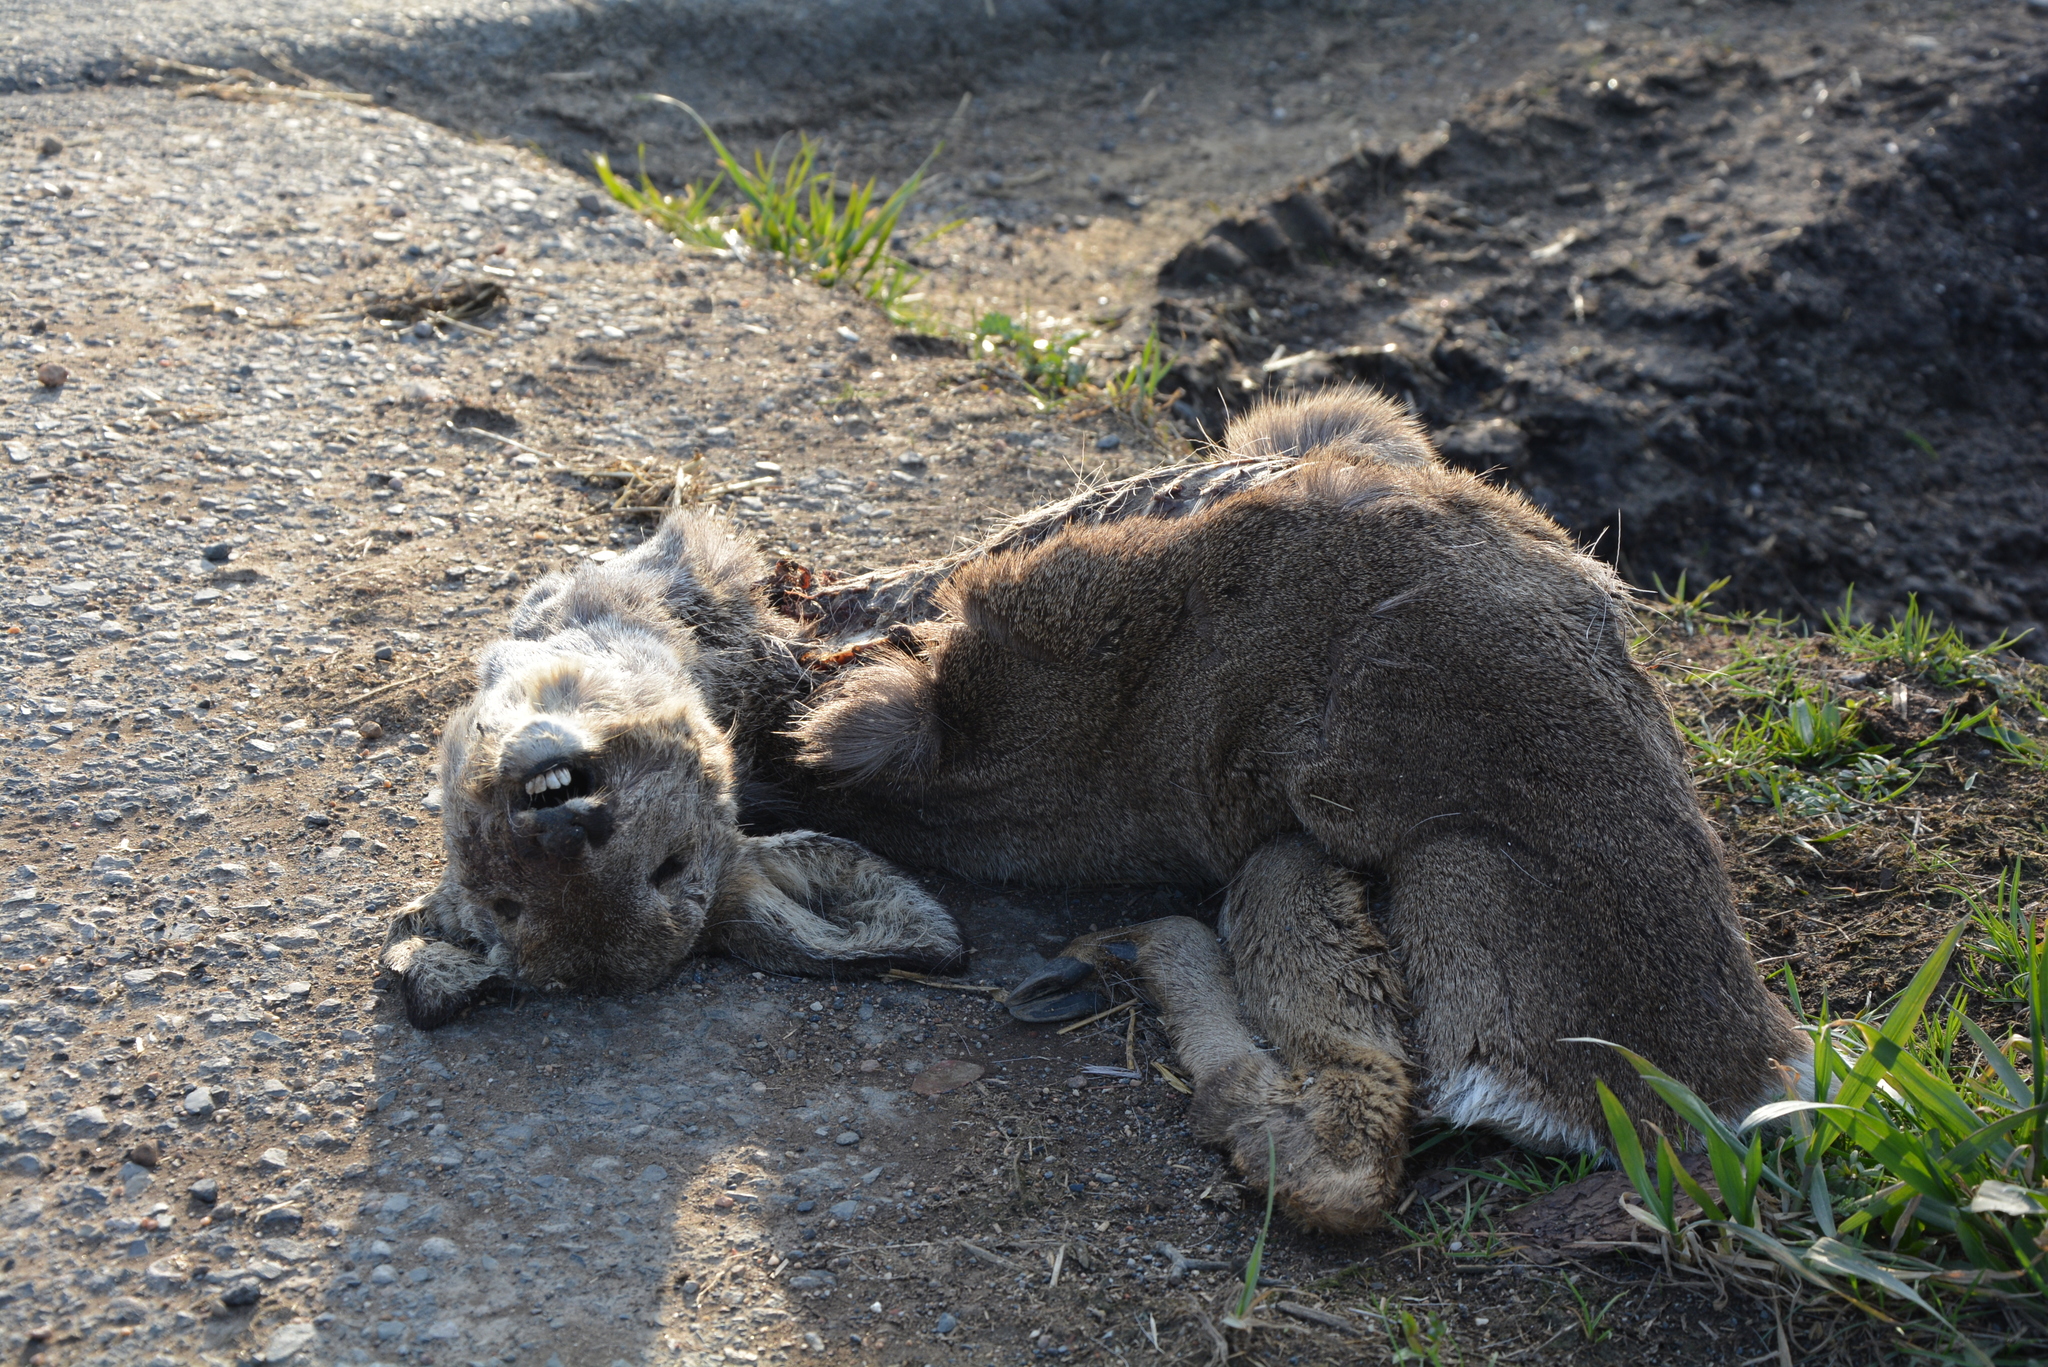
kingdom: Animalia
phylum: Chordata
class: Mammalia
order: Artiodactyla
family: Cervidae
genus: Capreolus
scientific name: Capreolus capreolus
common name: Western roe deer
